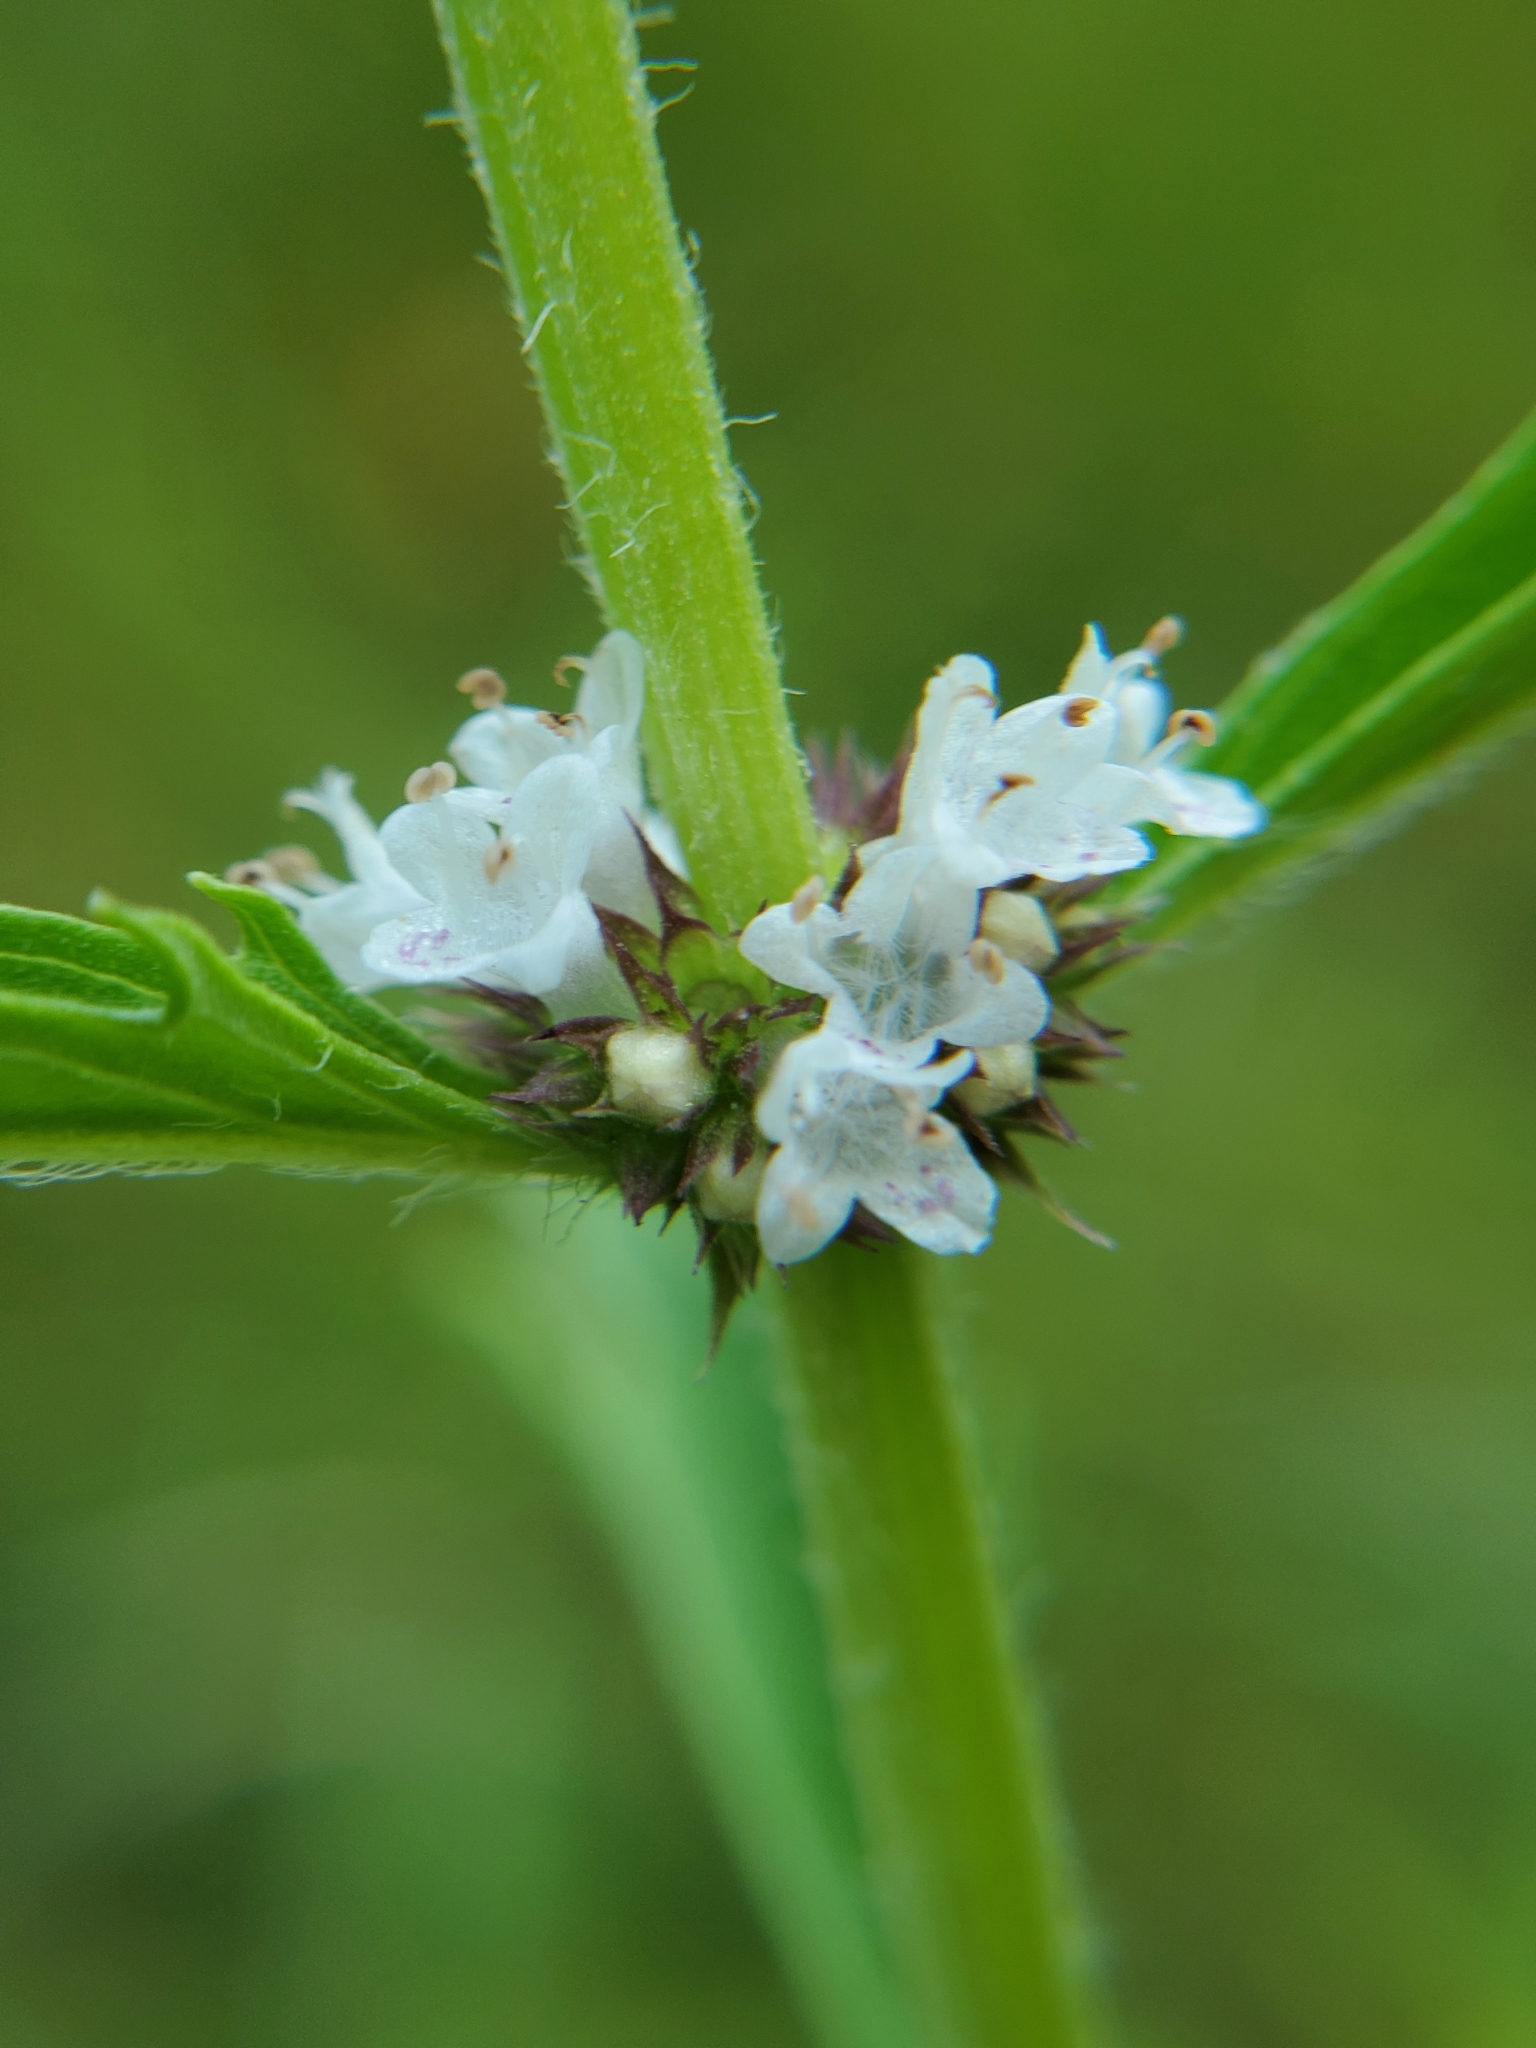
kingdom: Plantae
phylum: Tracheophyta
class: Magnoliopsida
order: Lamiales
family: Lamiaceae
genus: Lycopus
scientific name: Lycopus americanus
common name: American bugleweed
